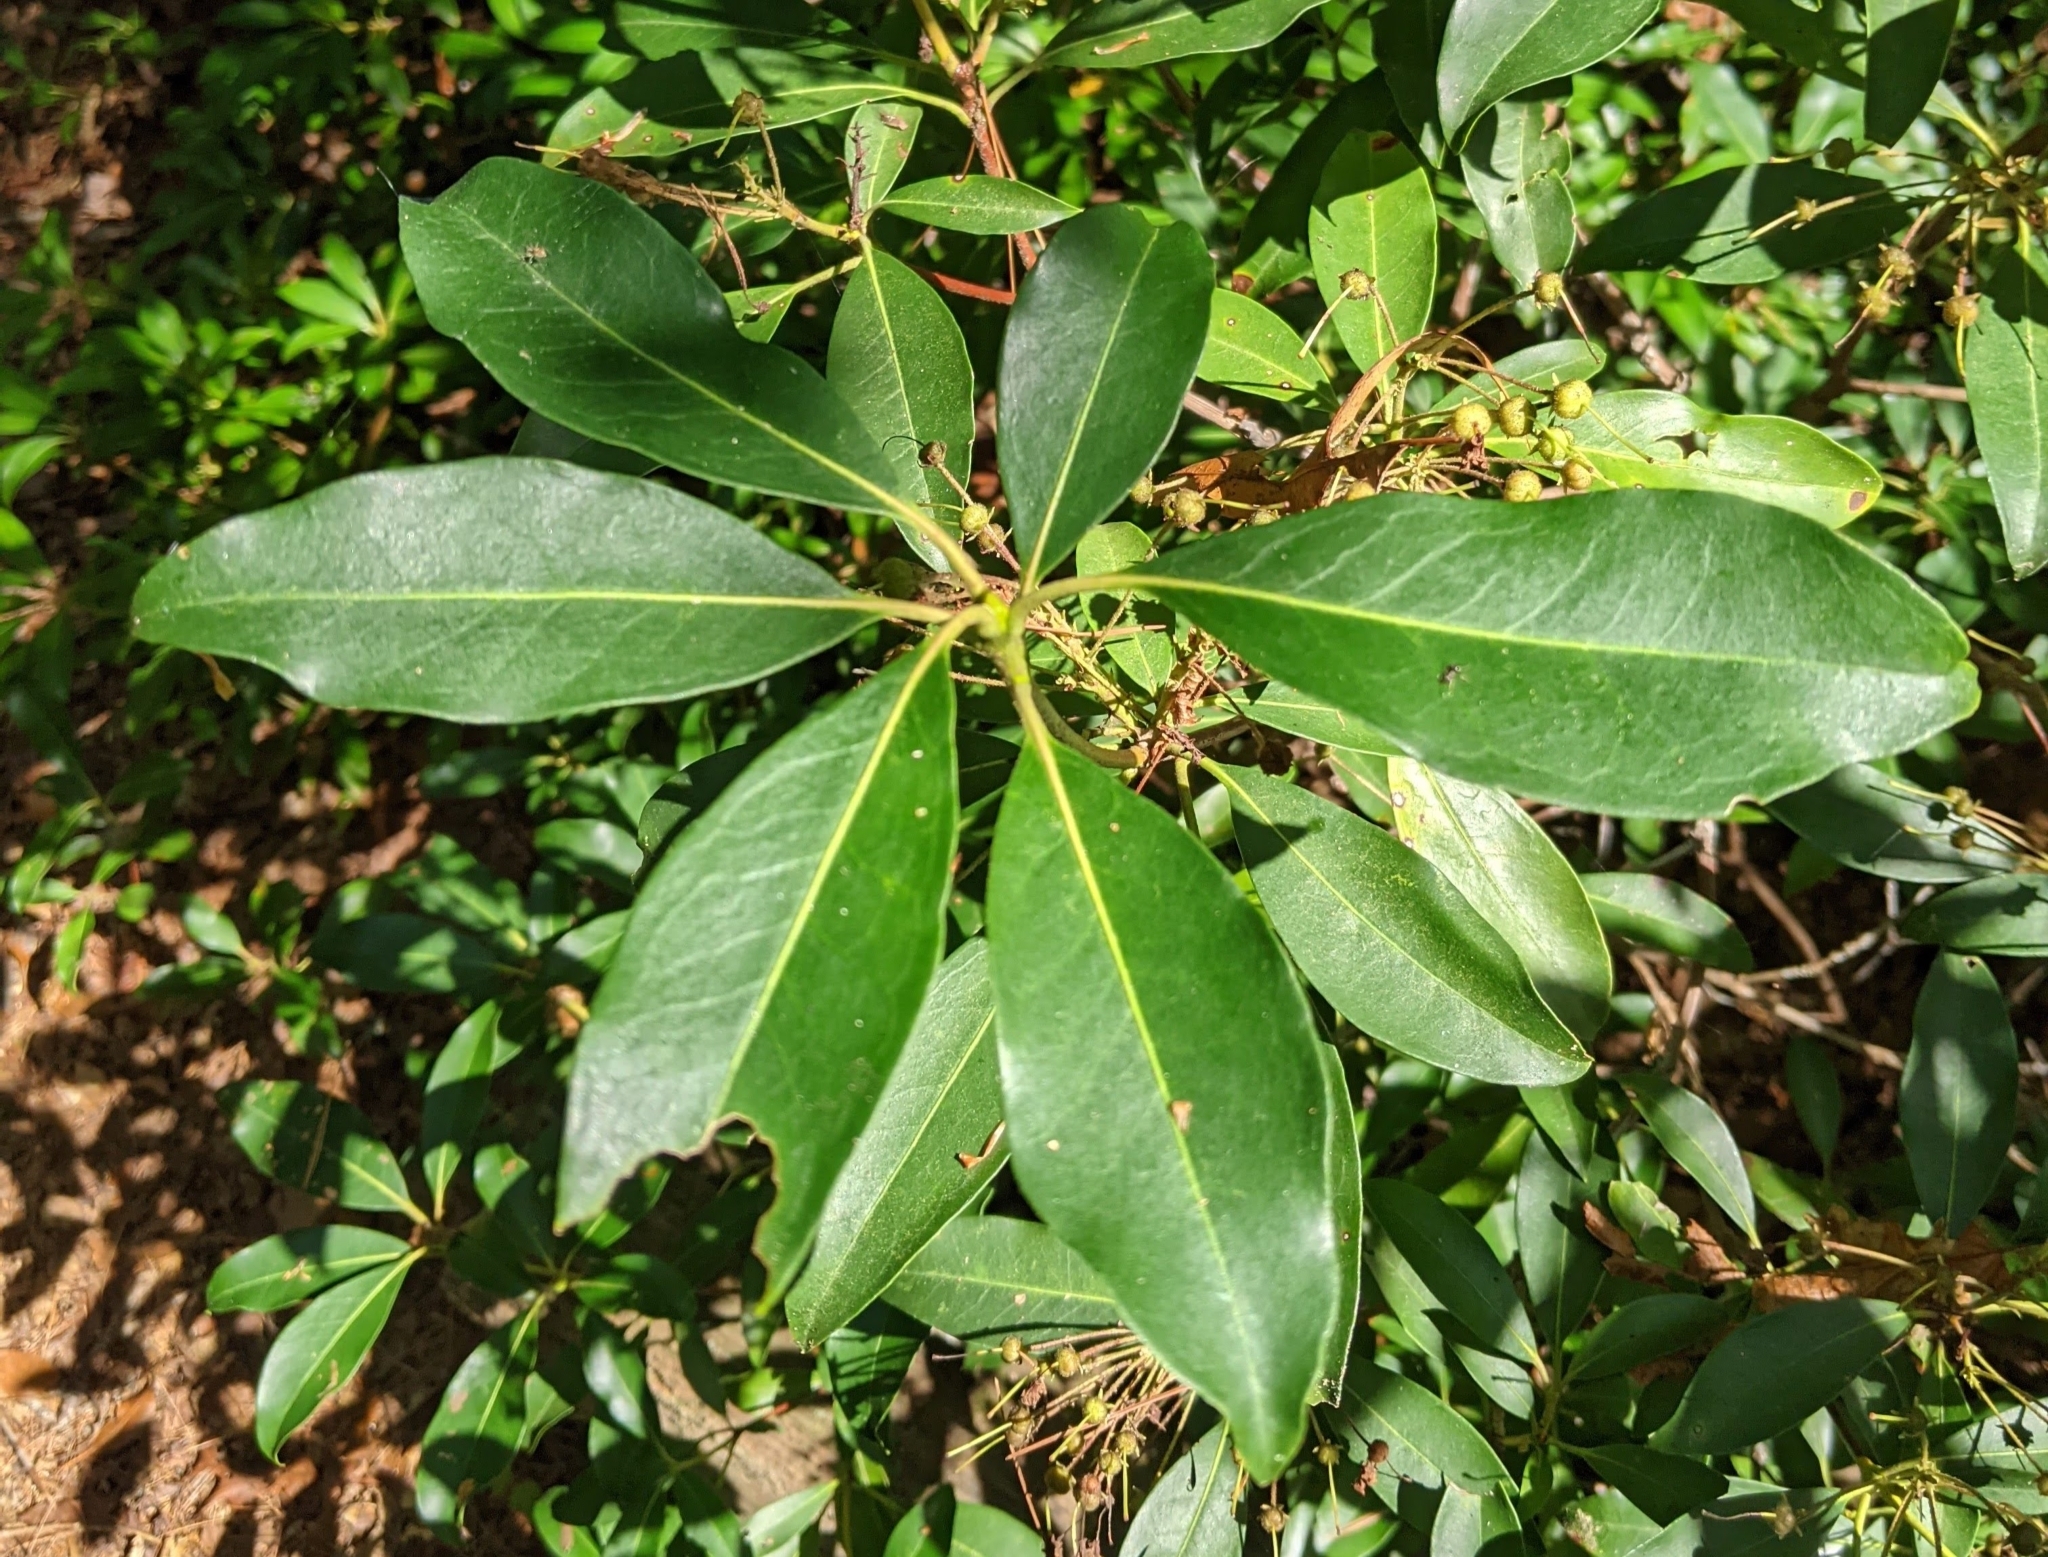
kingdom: Plantae
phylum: Tracheophyta
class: Magnoliopsida
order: Ericales
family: Ericaceae
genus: Kalmia
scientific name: Kalmia latifolia
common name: Mountain-laurel
